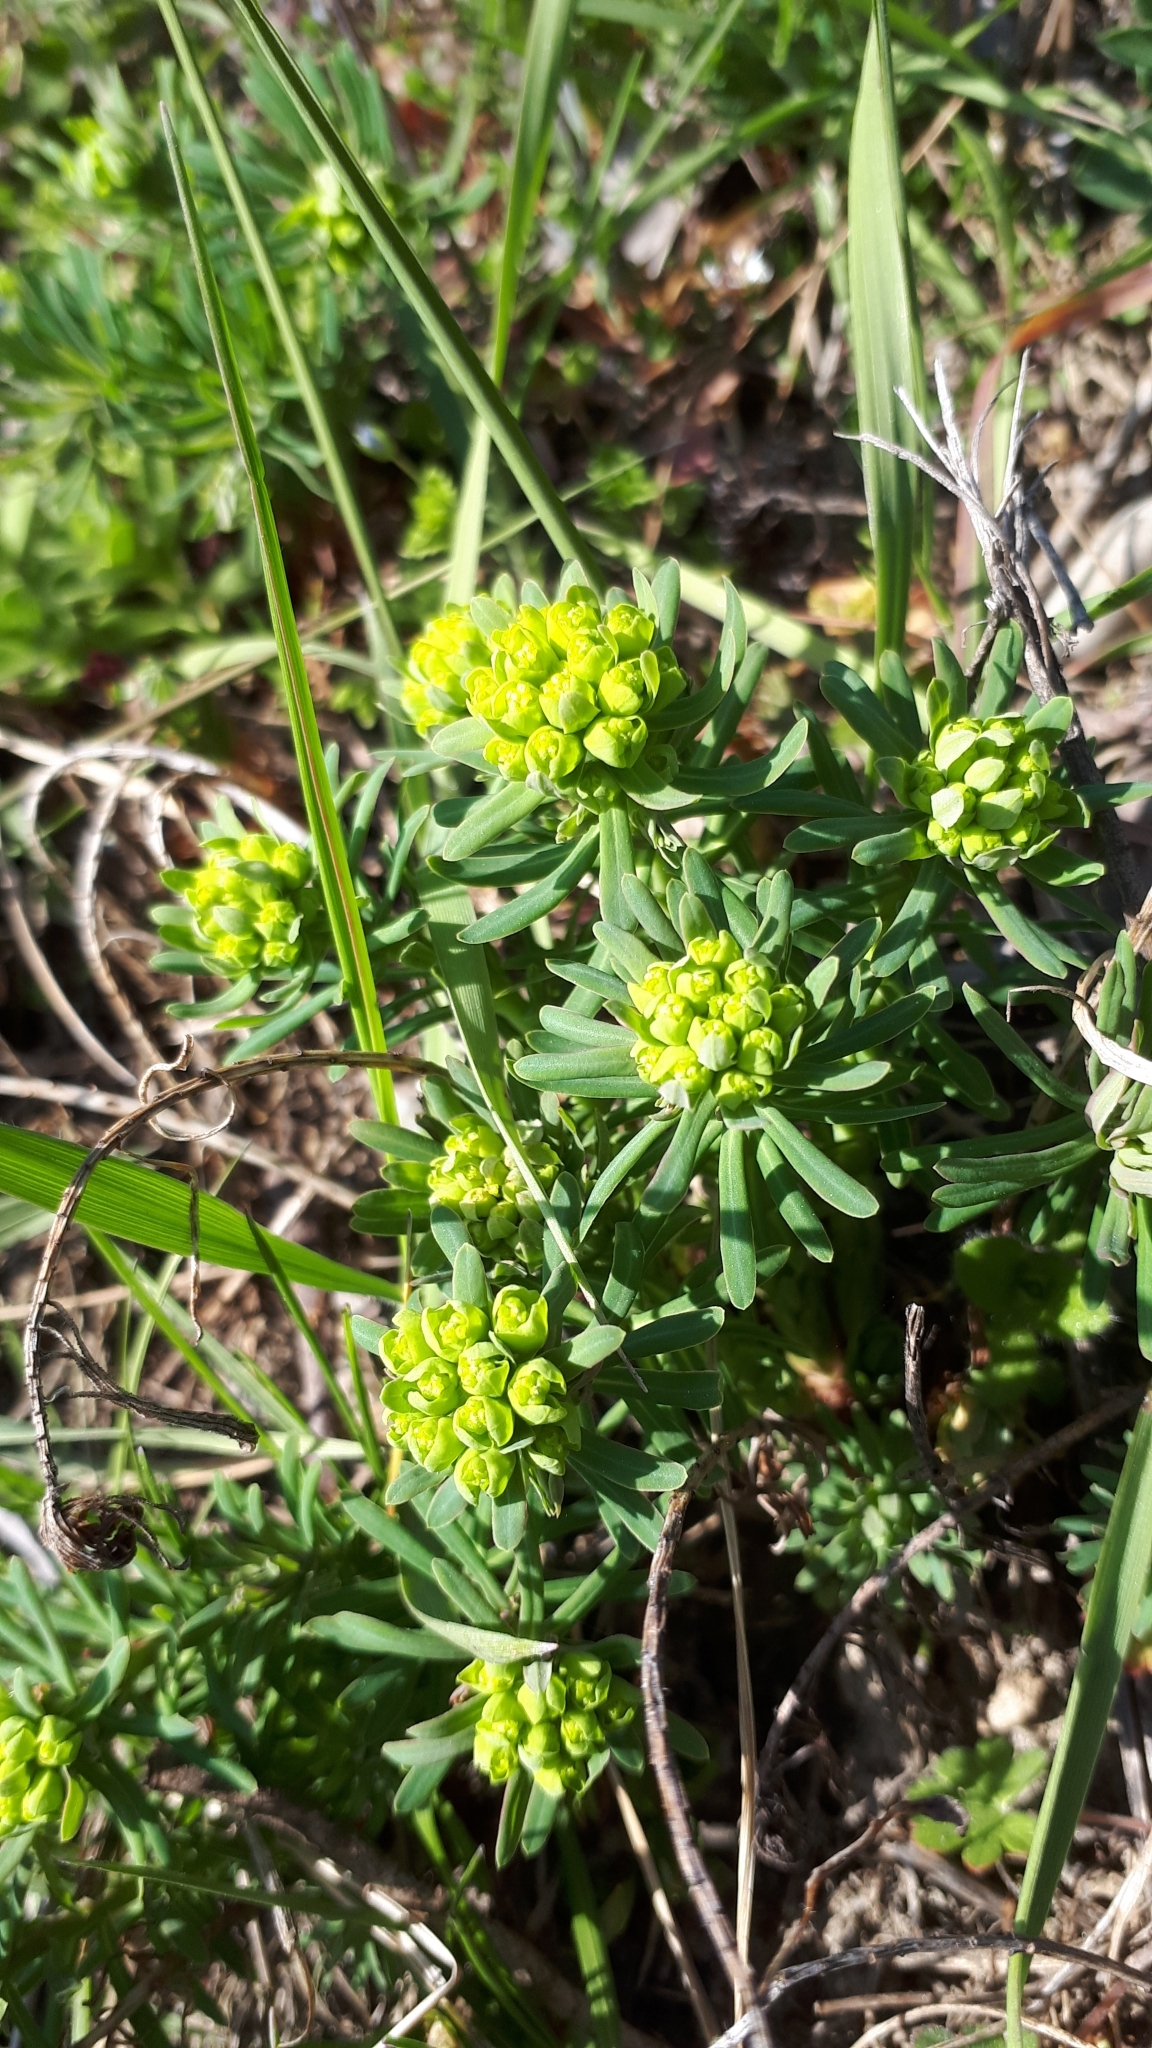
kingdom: Plantae
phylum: Tracheophyta
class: Magnoliopsida
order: Malpighiales
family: Euphorbiaceae
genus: Euphorbia
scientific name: Euphorbia cyparissias
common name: Cypress spurge
